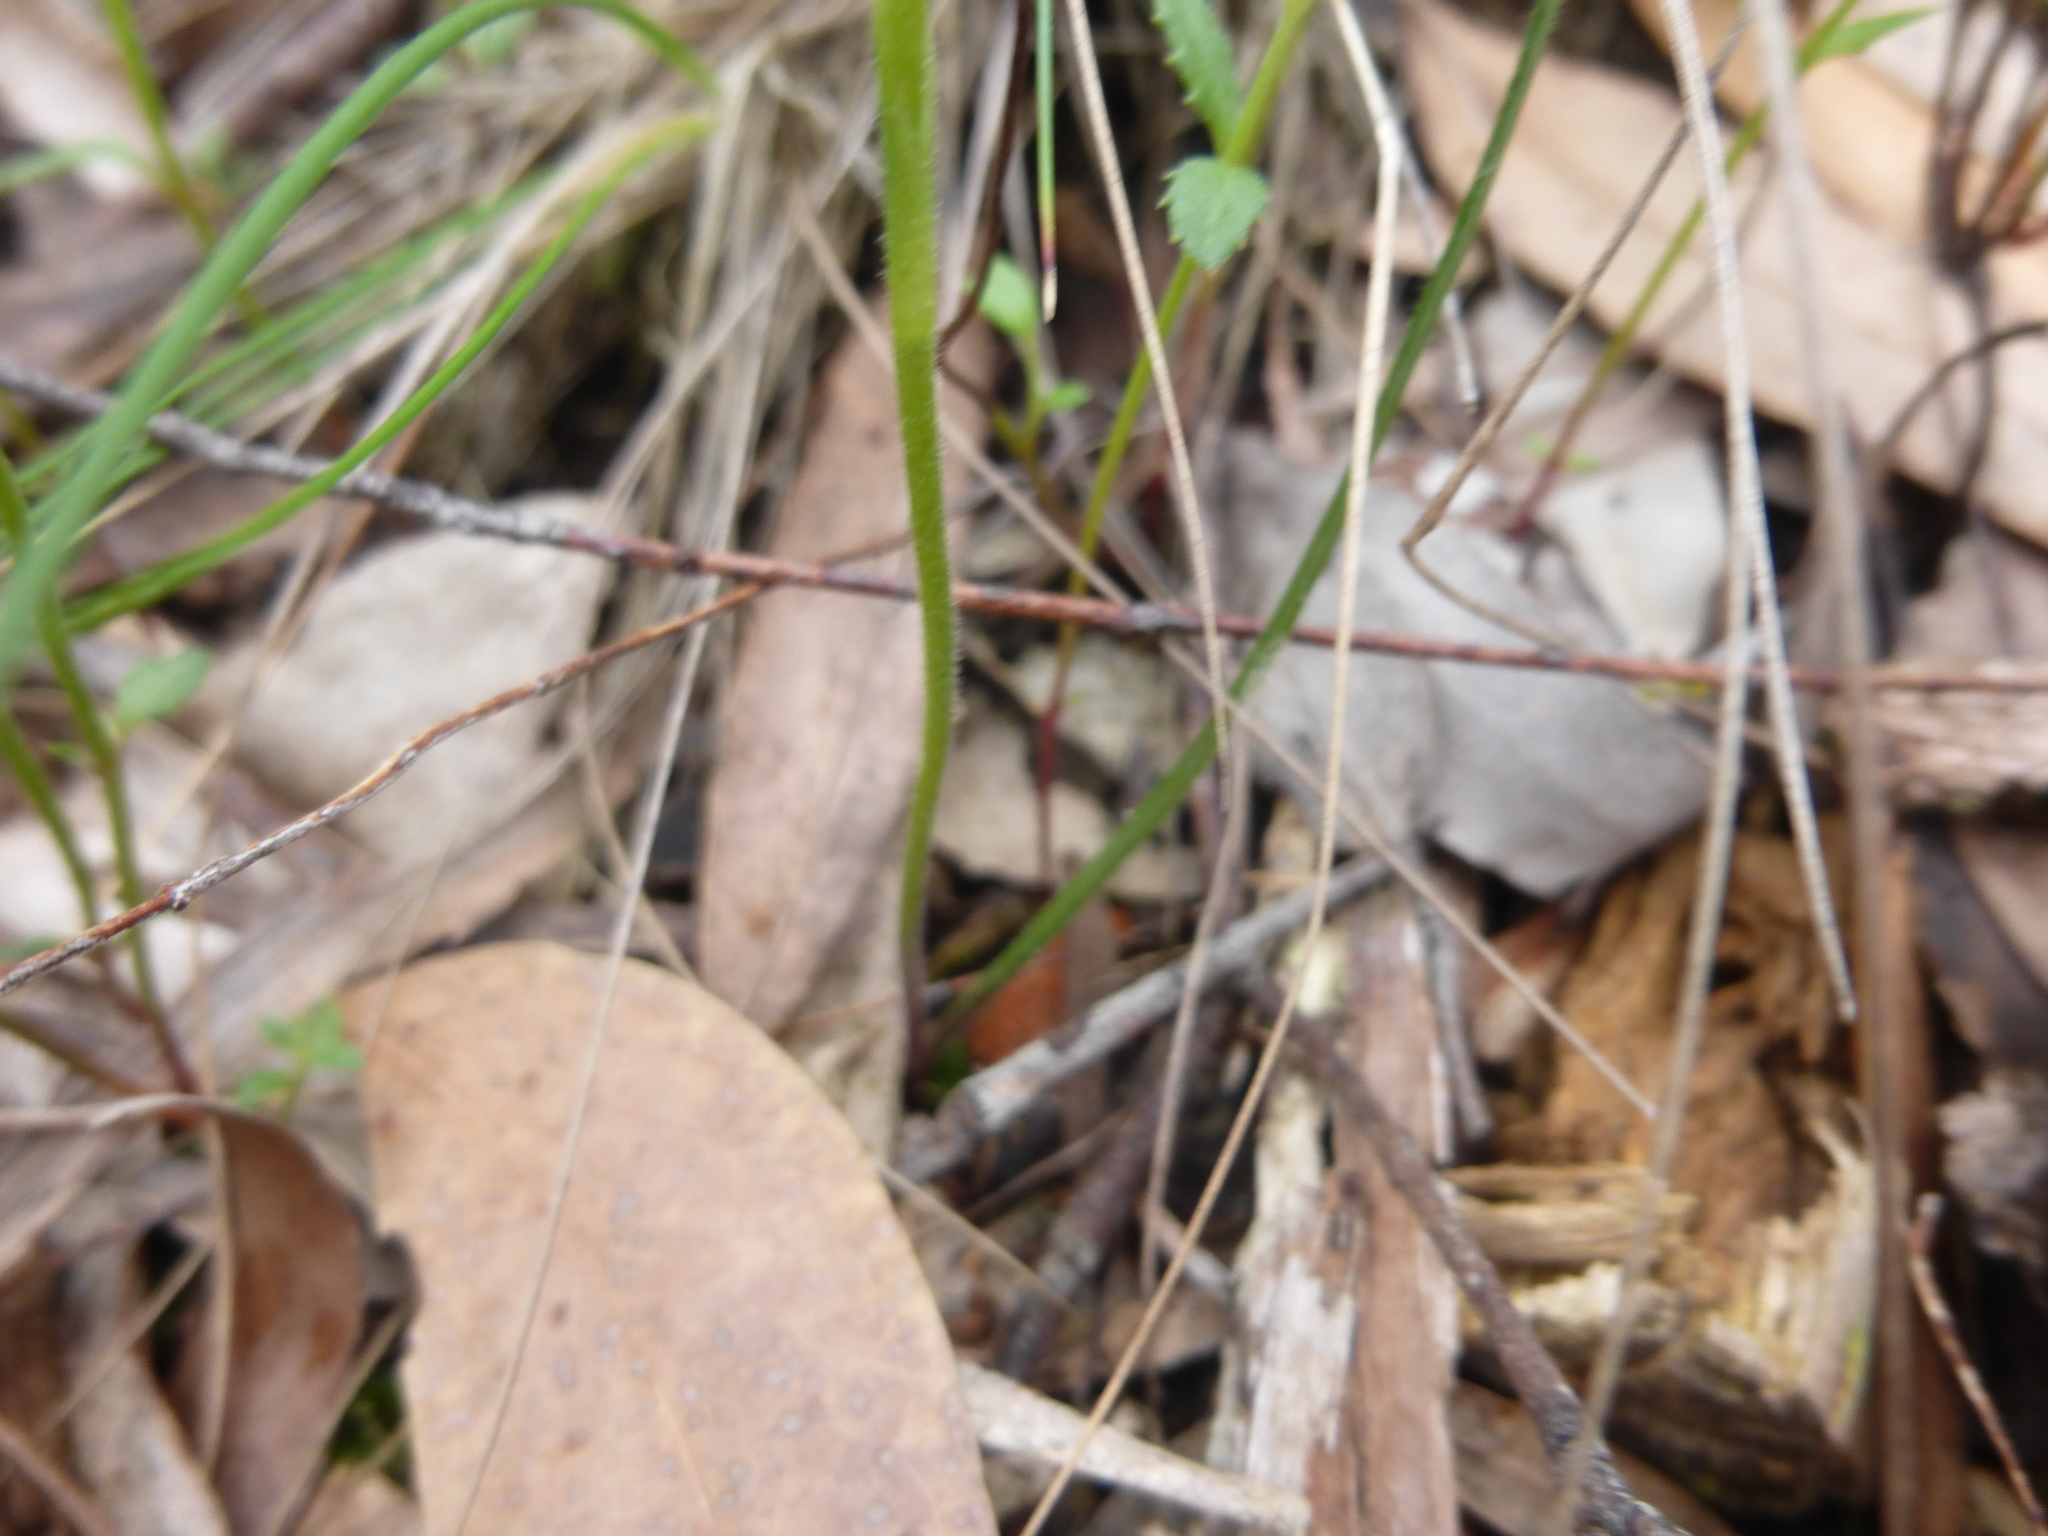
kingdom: Plantae
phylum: Tracheophyta
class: Liliopsida
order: Asparagales
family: Orchidaceae
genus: Caladenia
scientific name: Caladenia carnea
